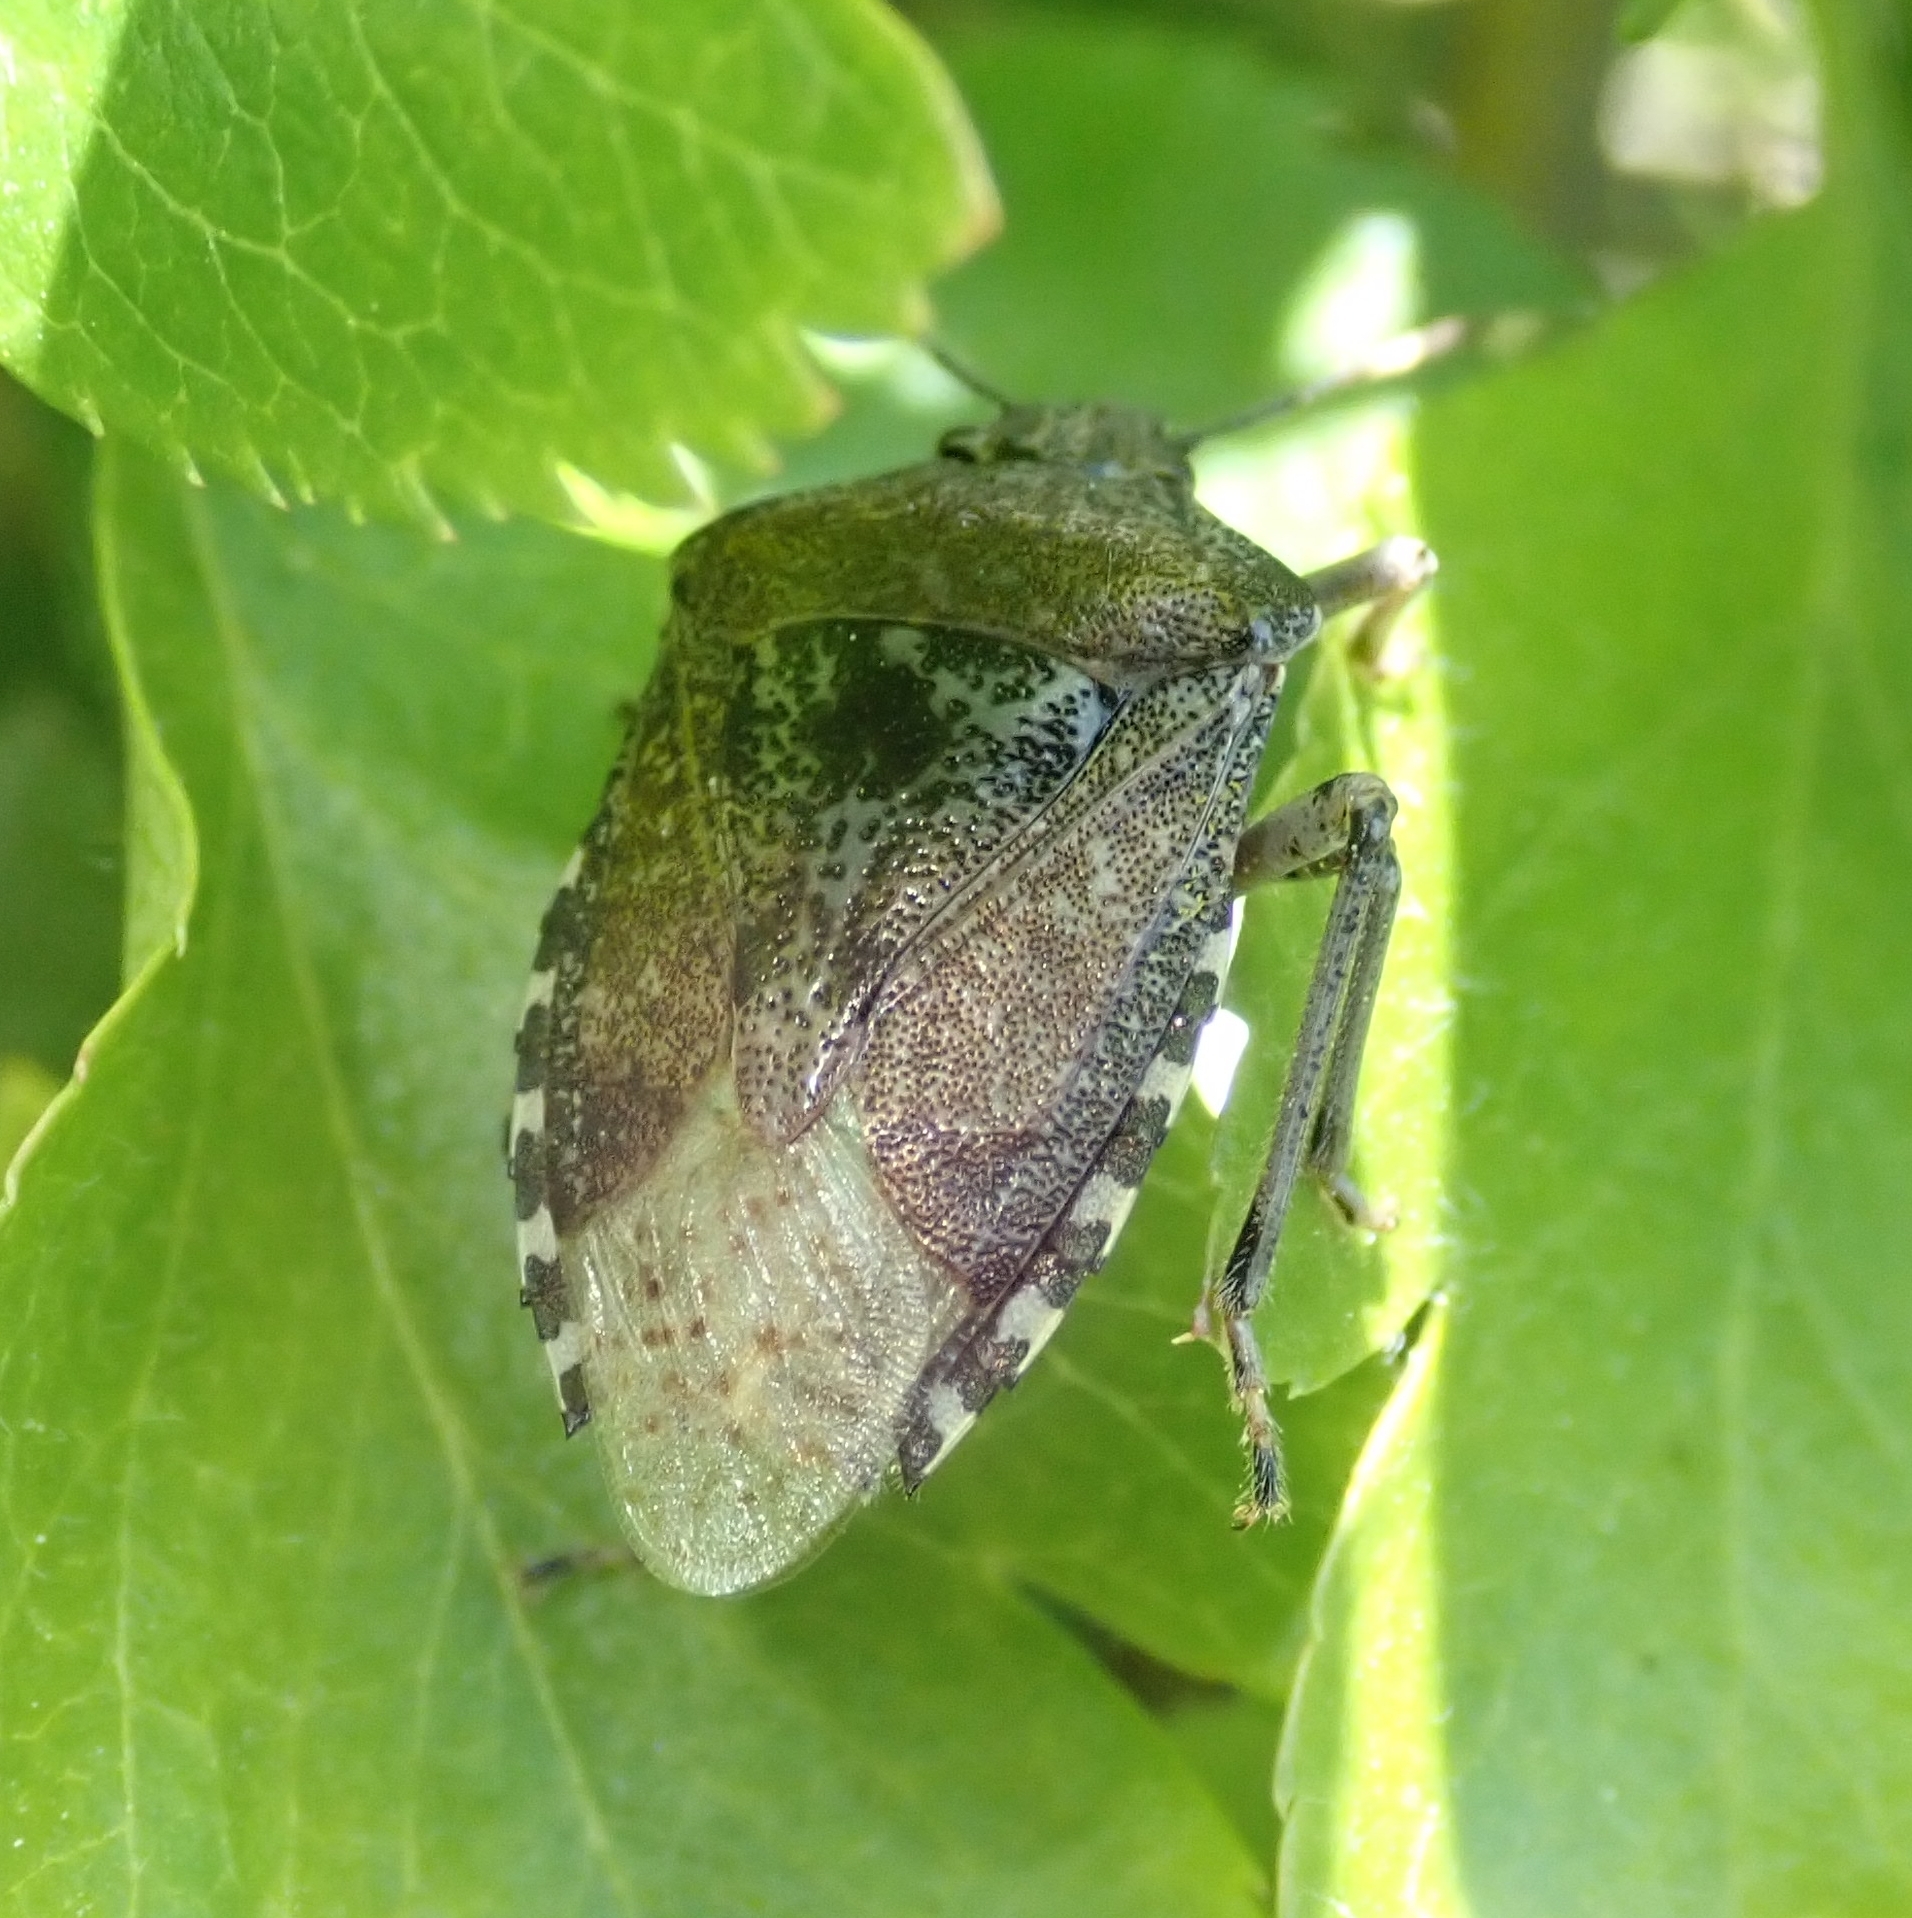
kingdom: Animalia
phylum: Arthropoda
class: Insecta
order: Hemiptera
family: Pentatomidae
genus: Rhaphigaster
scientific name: Rhaphigaster nebulosa
